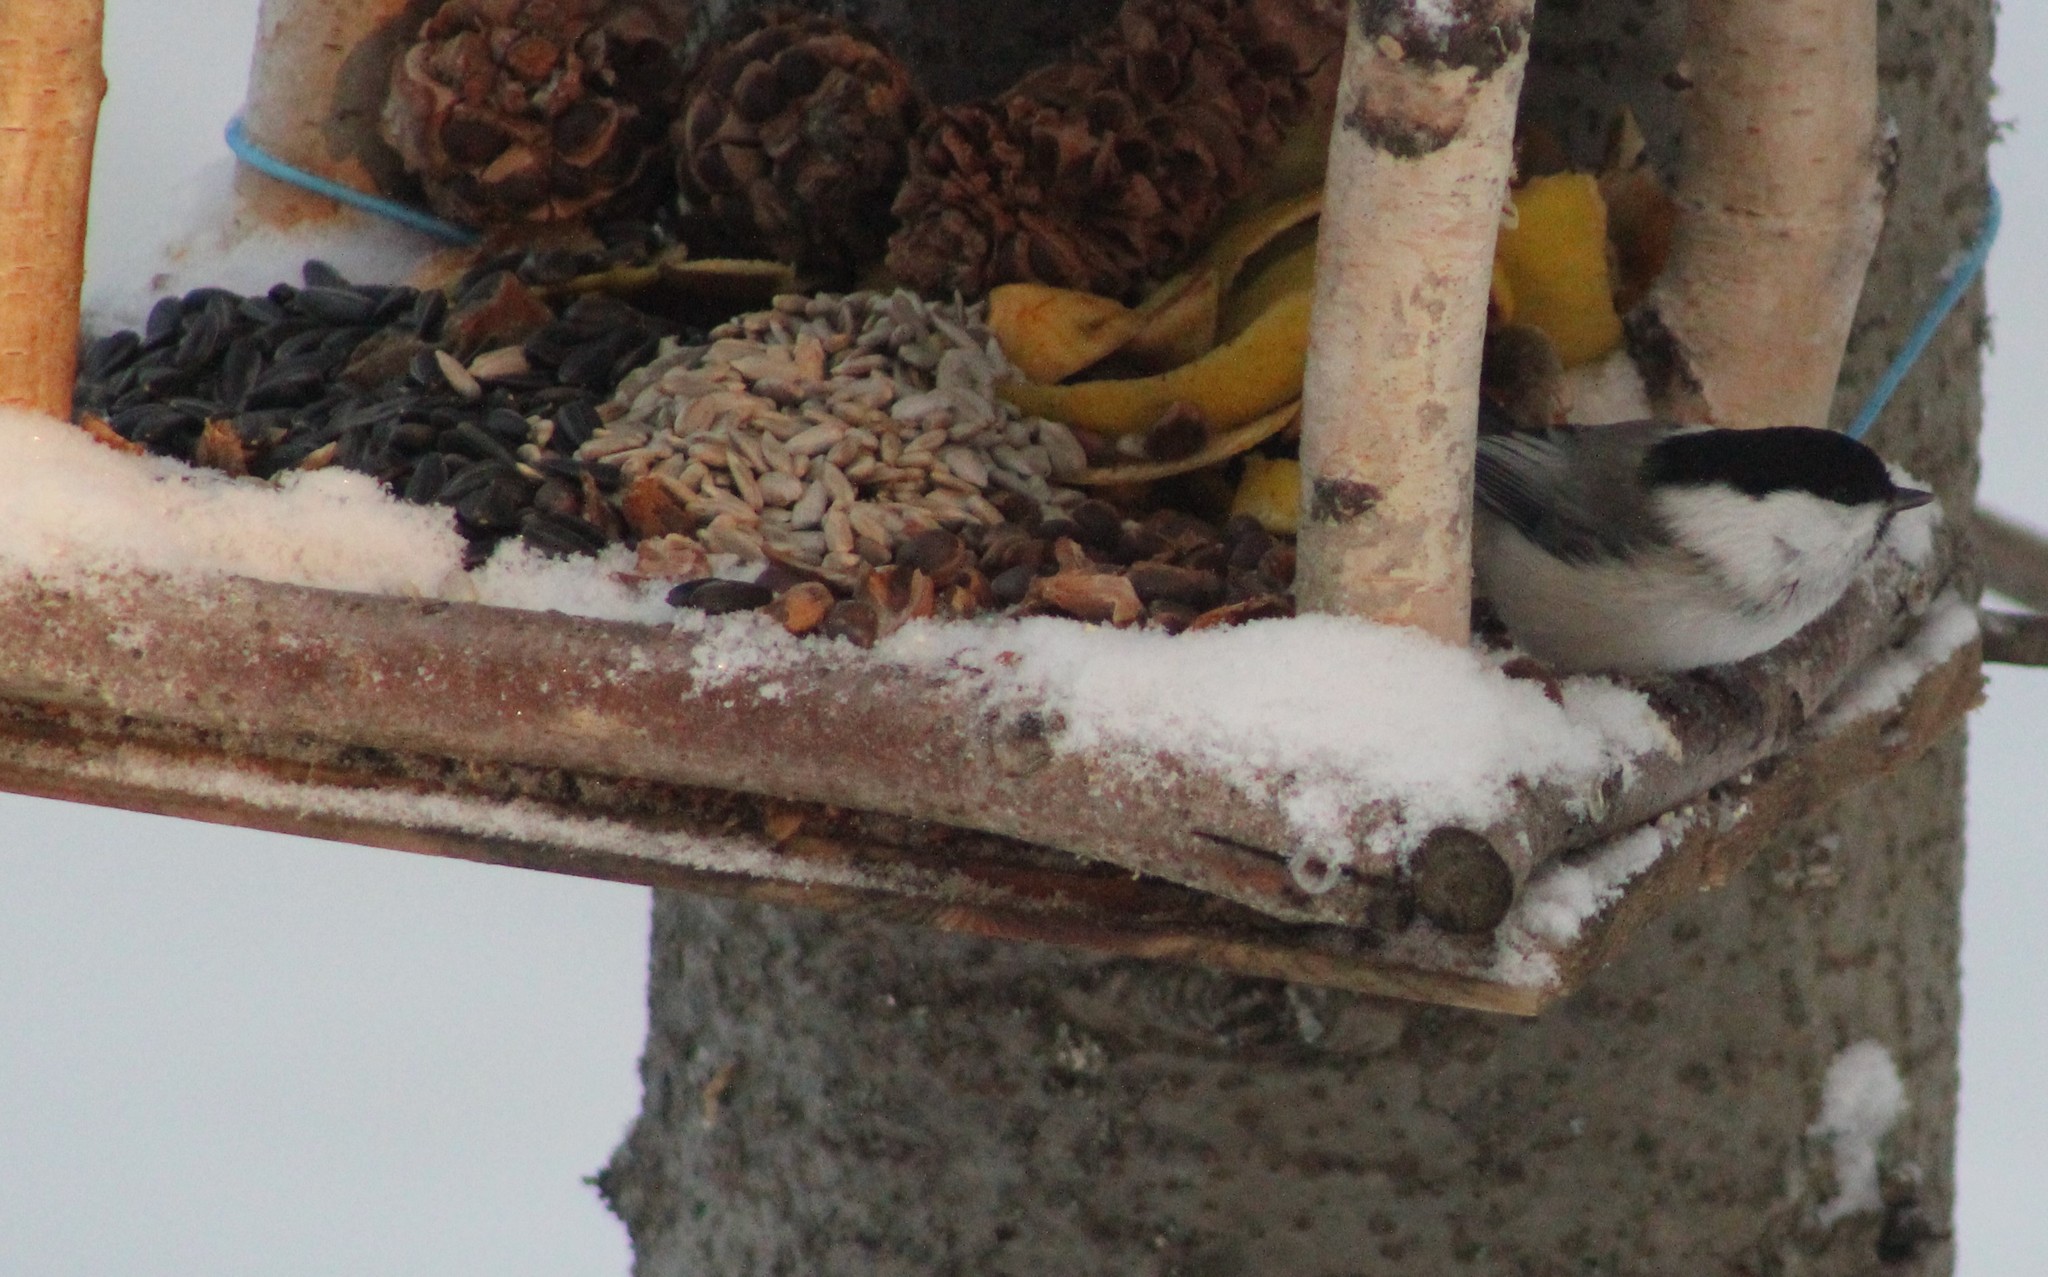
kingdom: Animalia
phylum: Chordata
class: Aves
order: Passeriformes
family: Paridae
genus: Poecile
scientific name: Poecile montanus
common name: Willow tit
